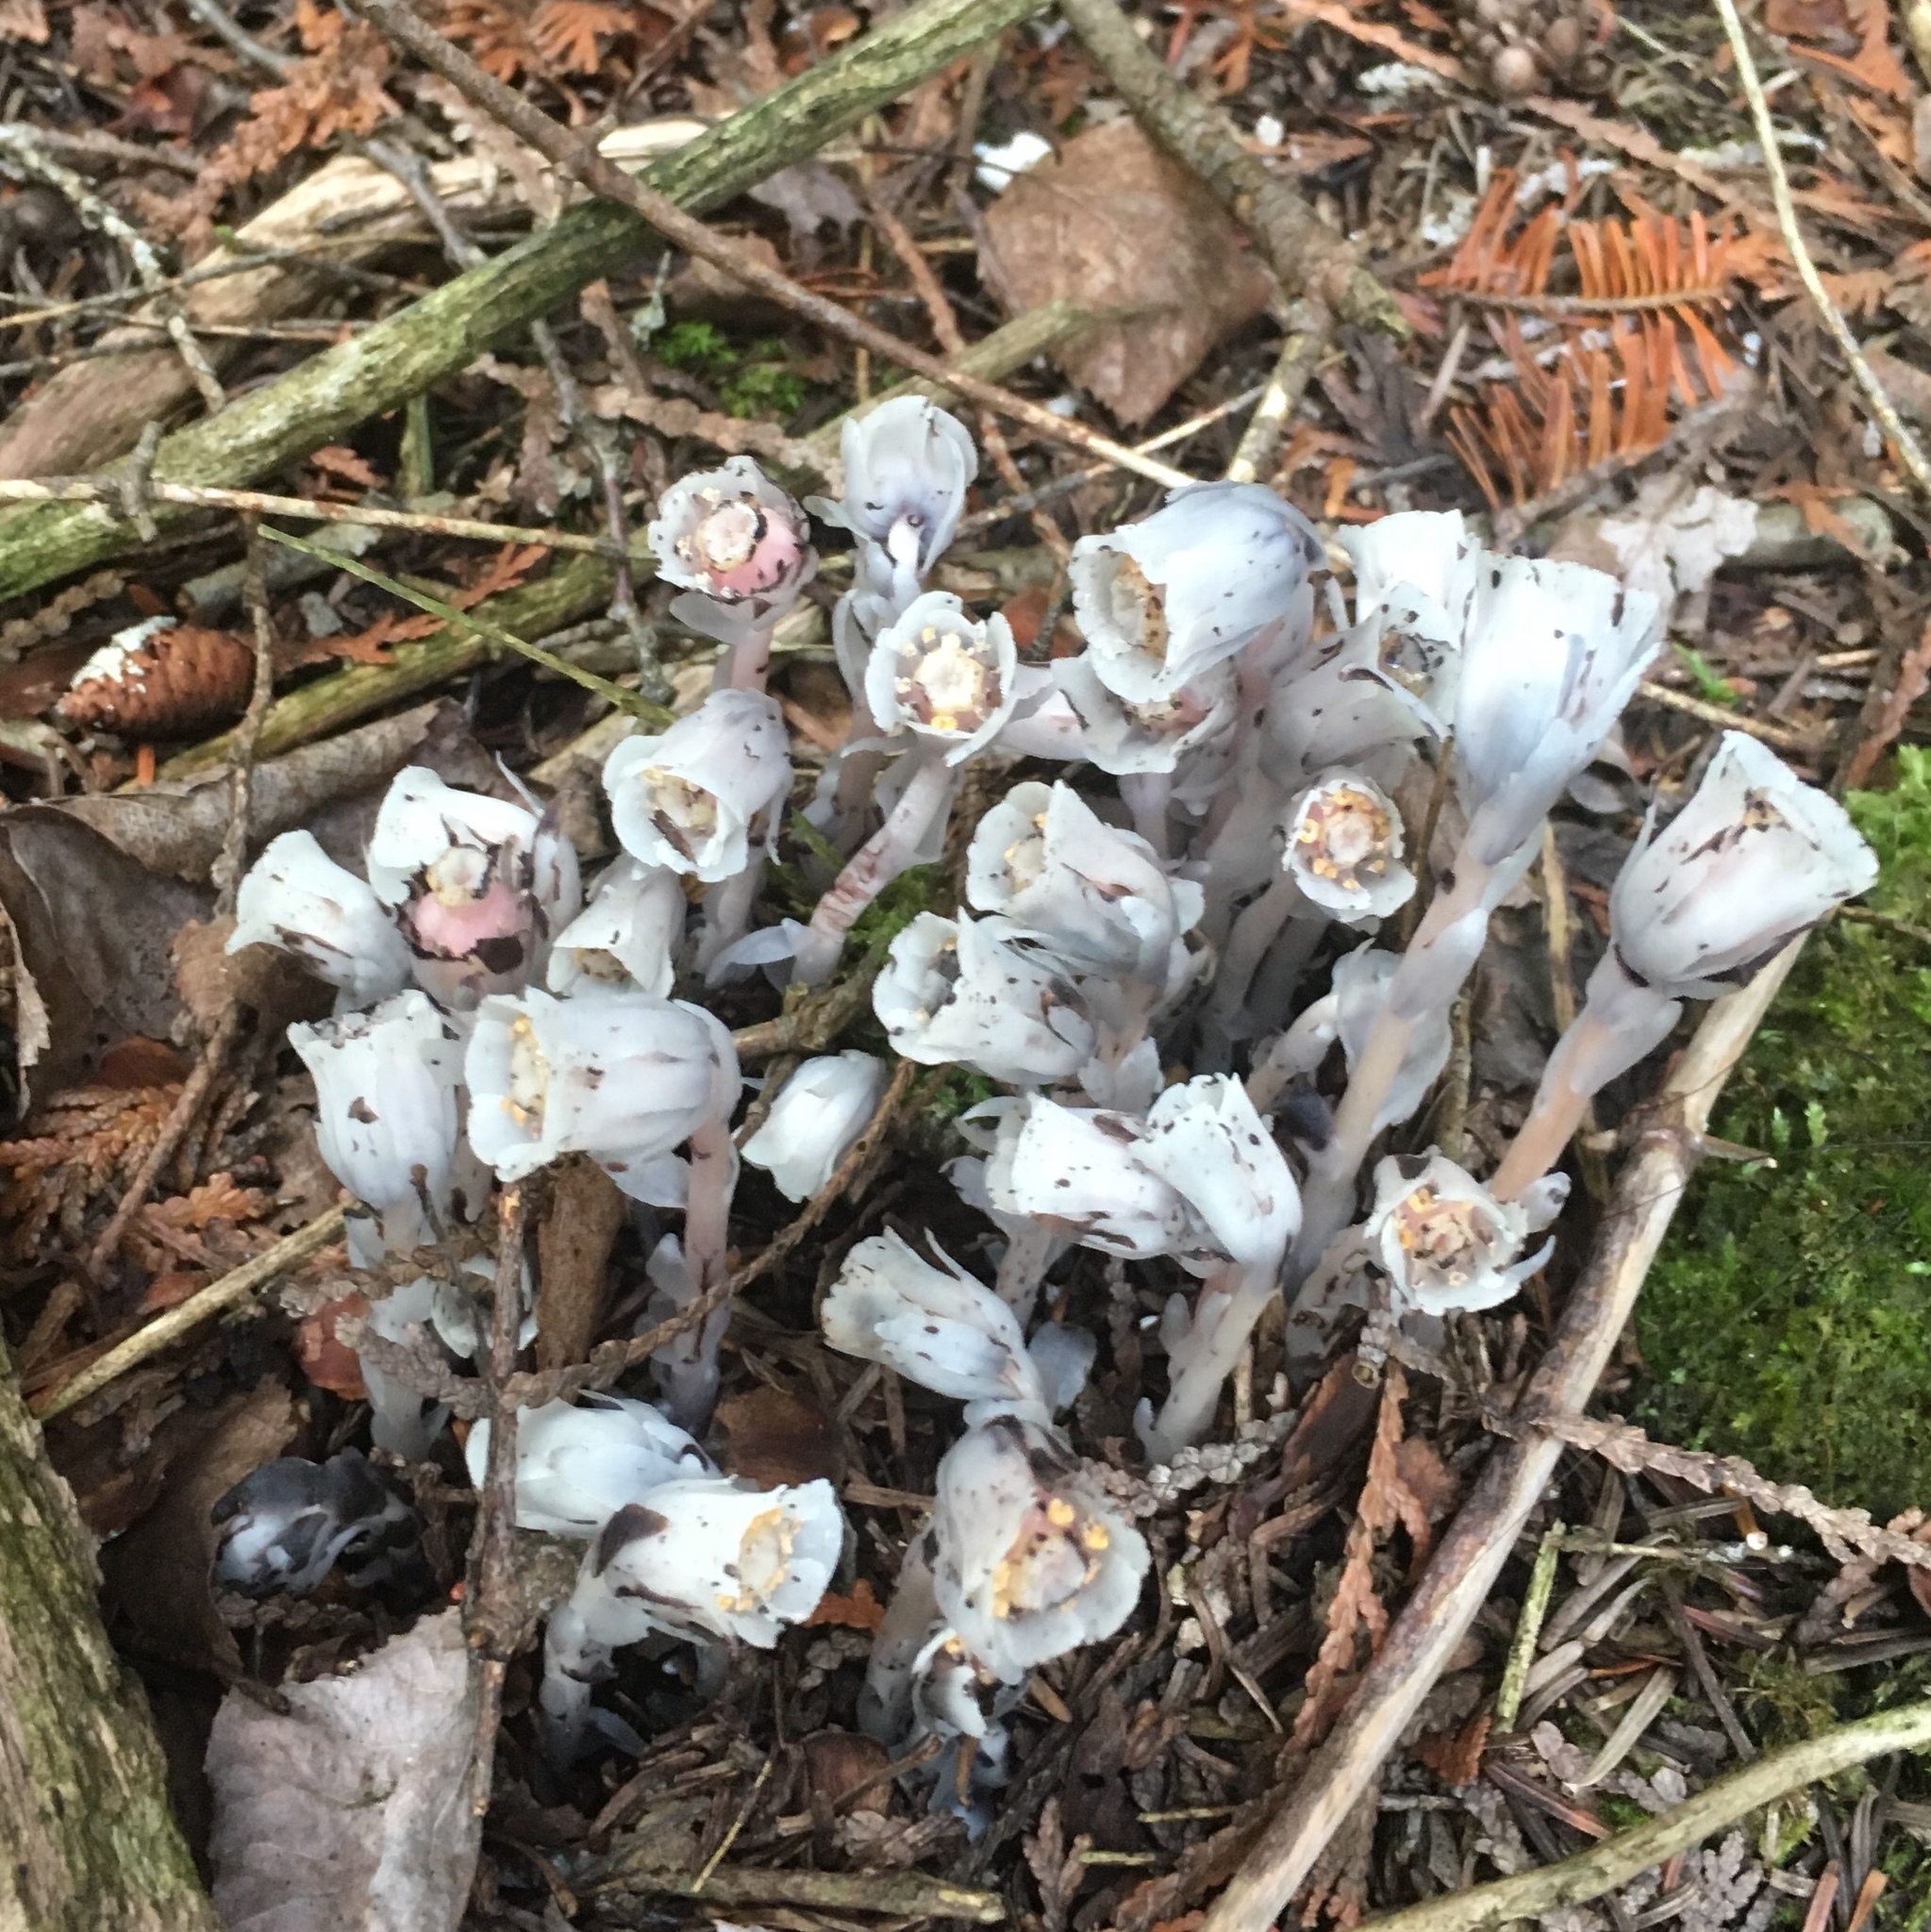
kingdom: Plantae
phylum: Tracheophyta
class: Magnoliopsida
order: Ericales
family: Ericaceae
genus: Monotropa
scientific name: Monotropa uniflora
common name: Convulsion root
